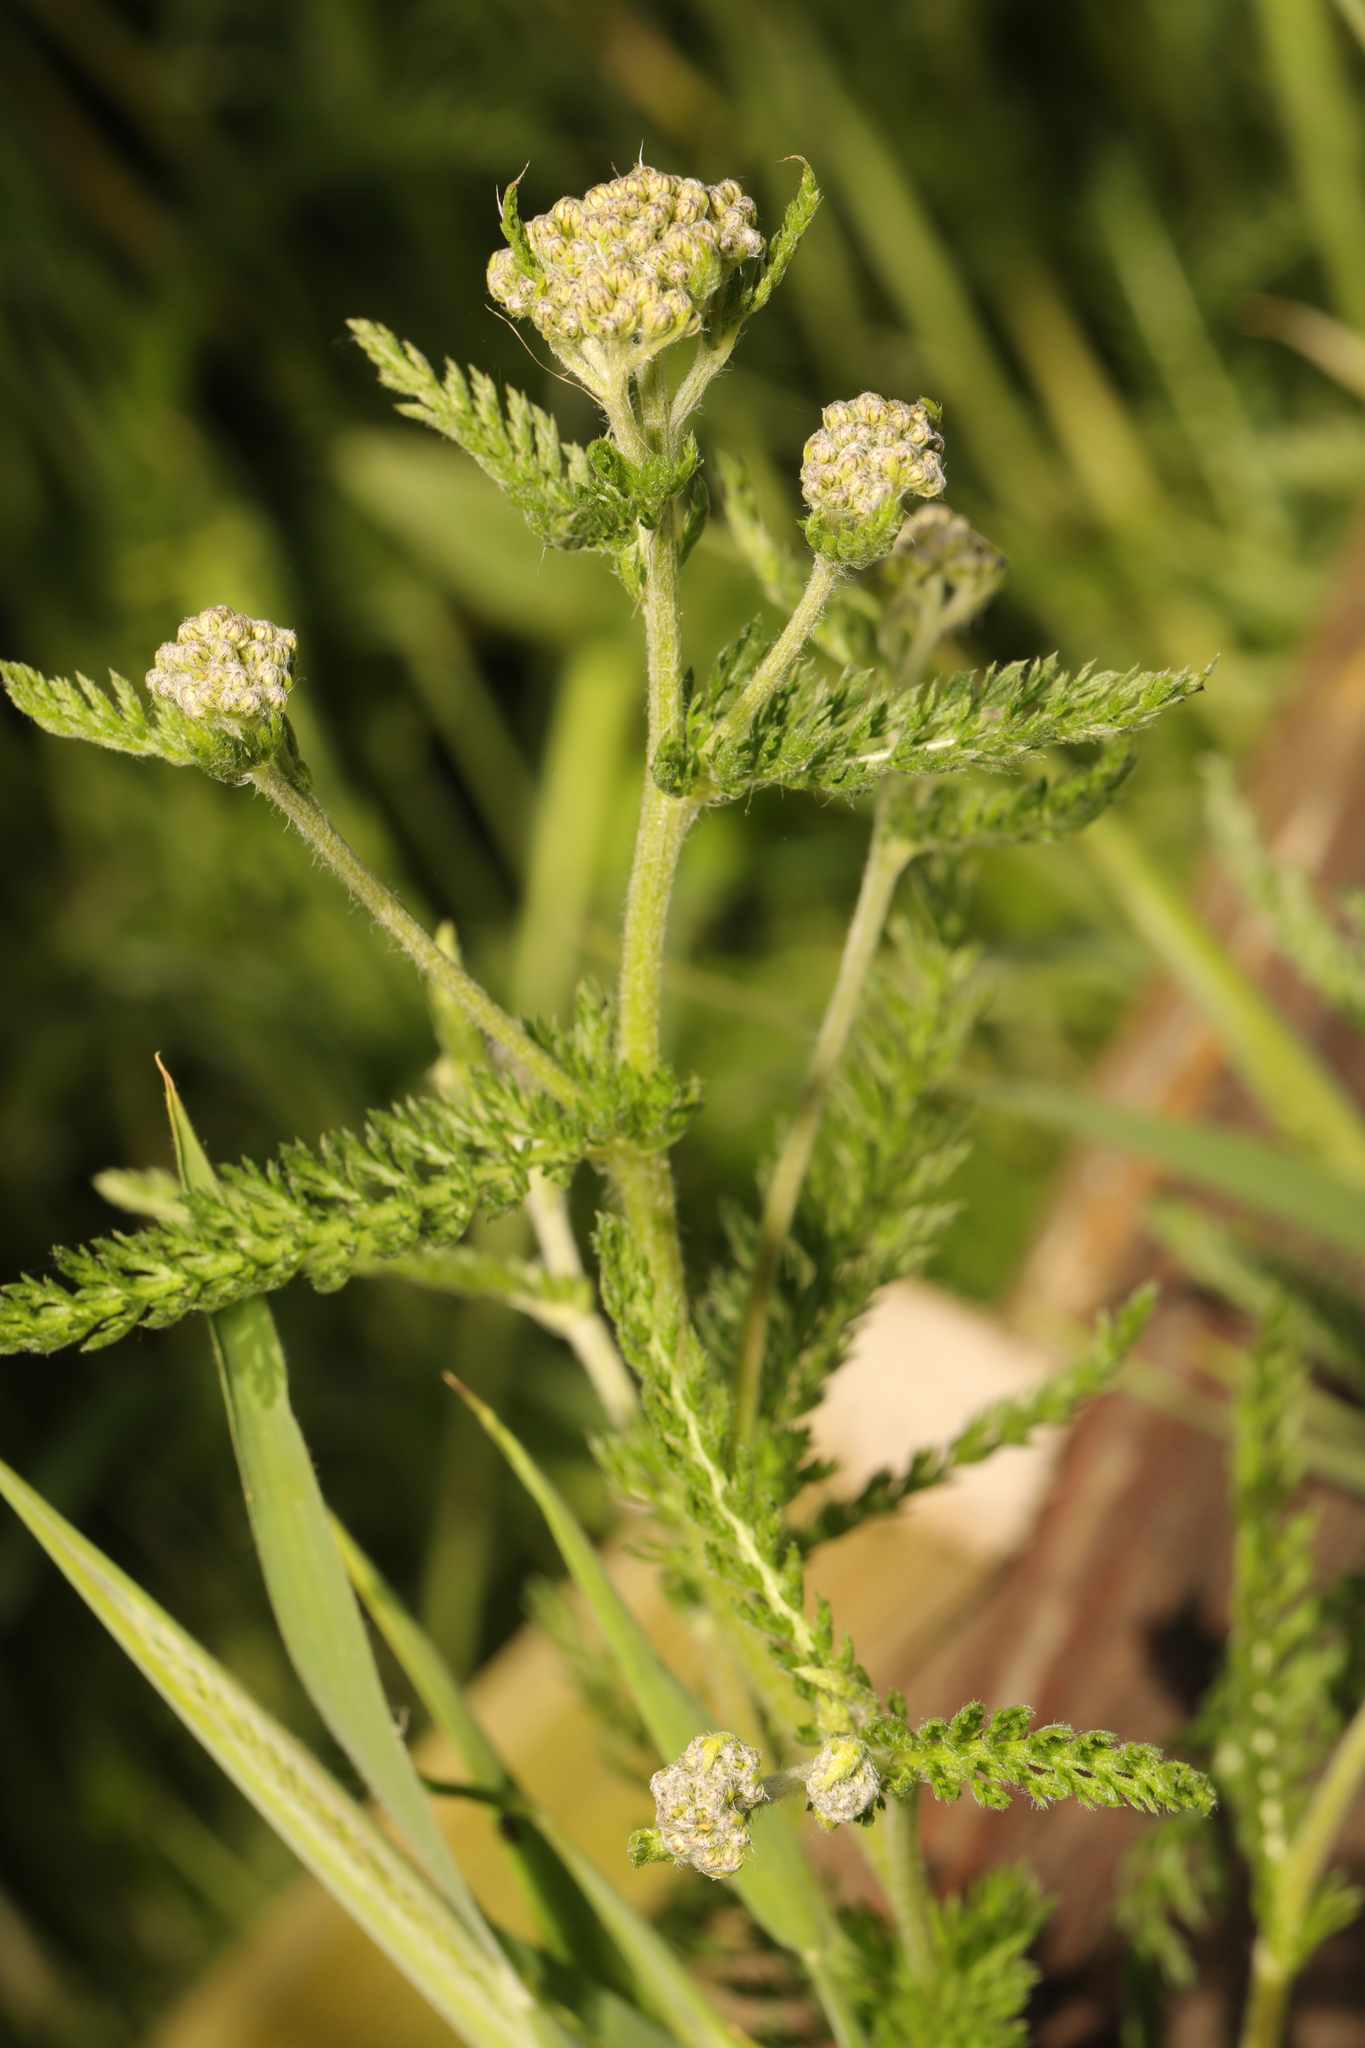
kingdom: Plantae
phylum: Tracheophyta
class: Magnoliopsida
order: Asterales
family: Asteraceae
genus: Achillea
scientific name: Achillea millefolium
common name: Yarrow
